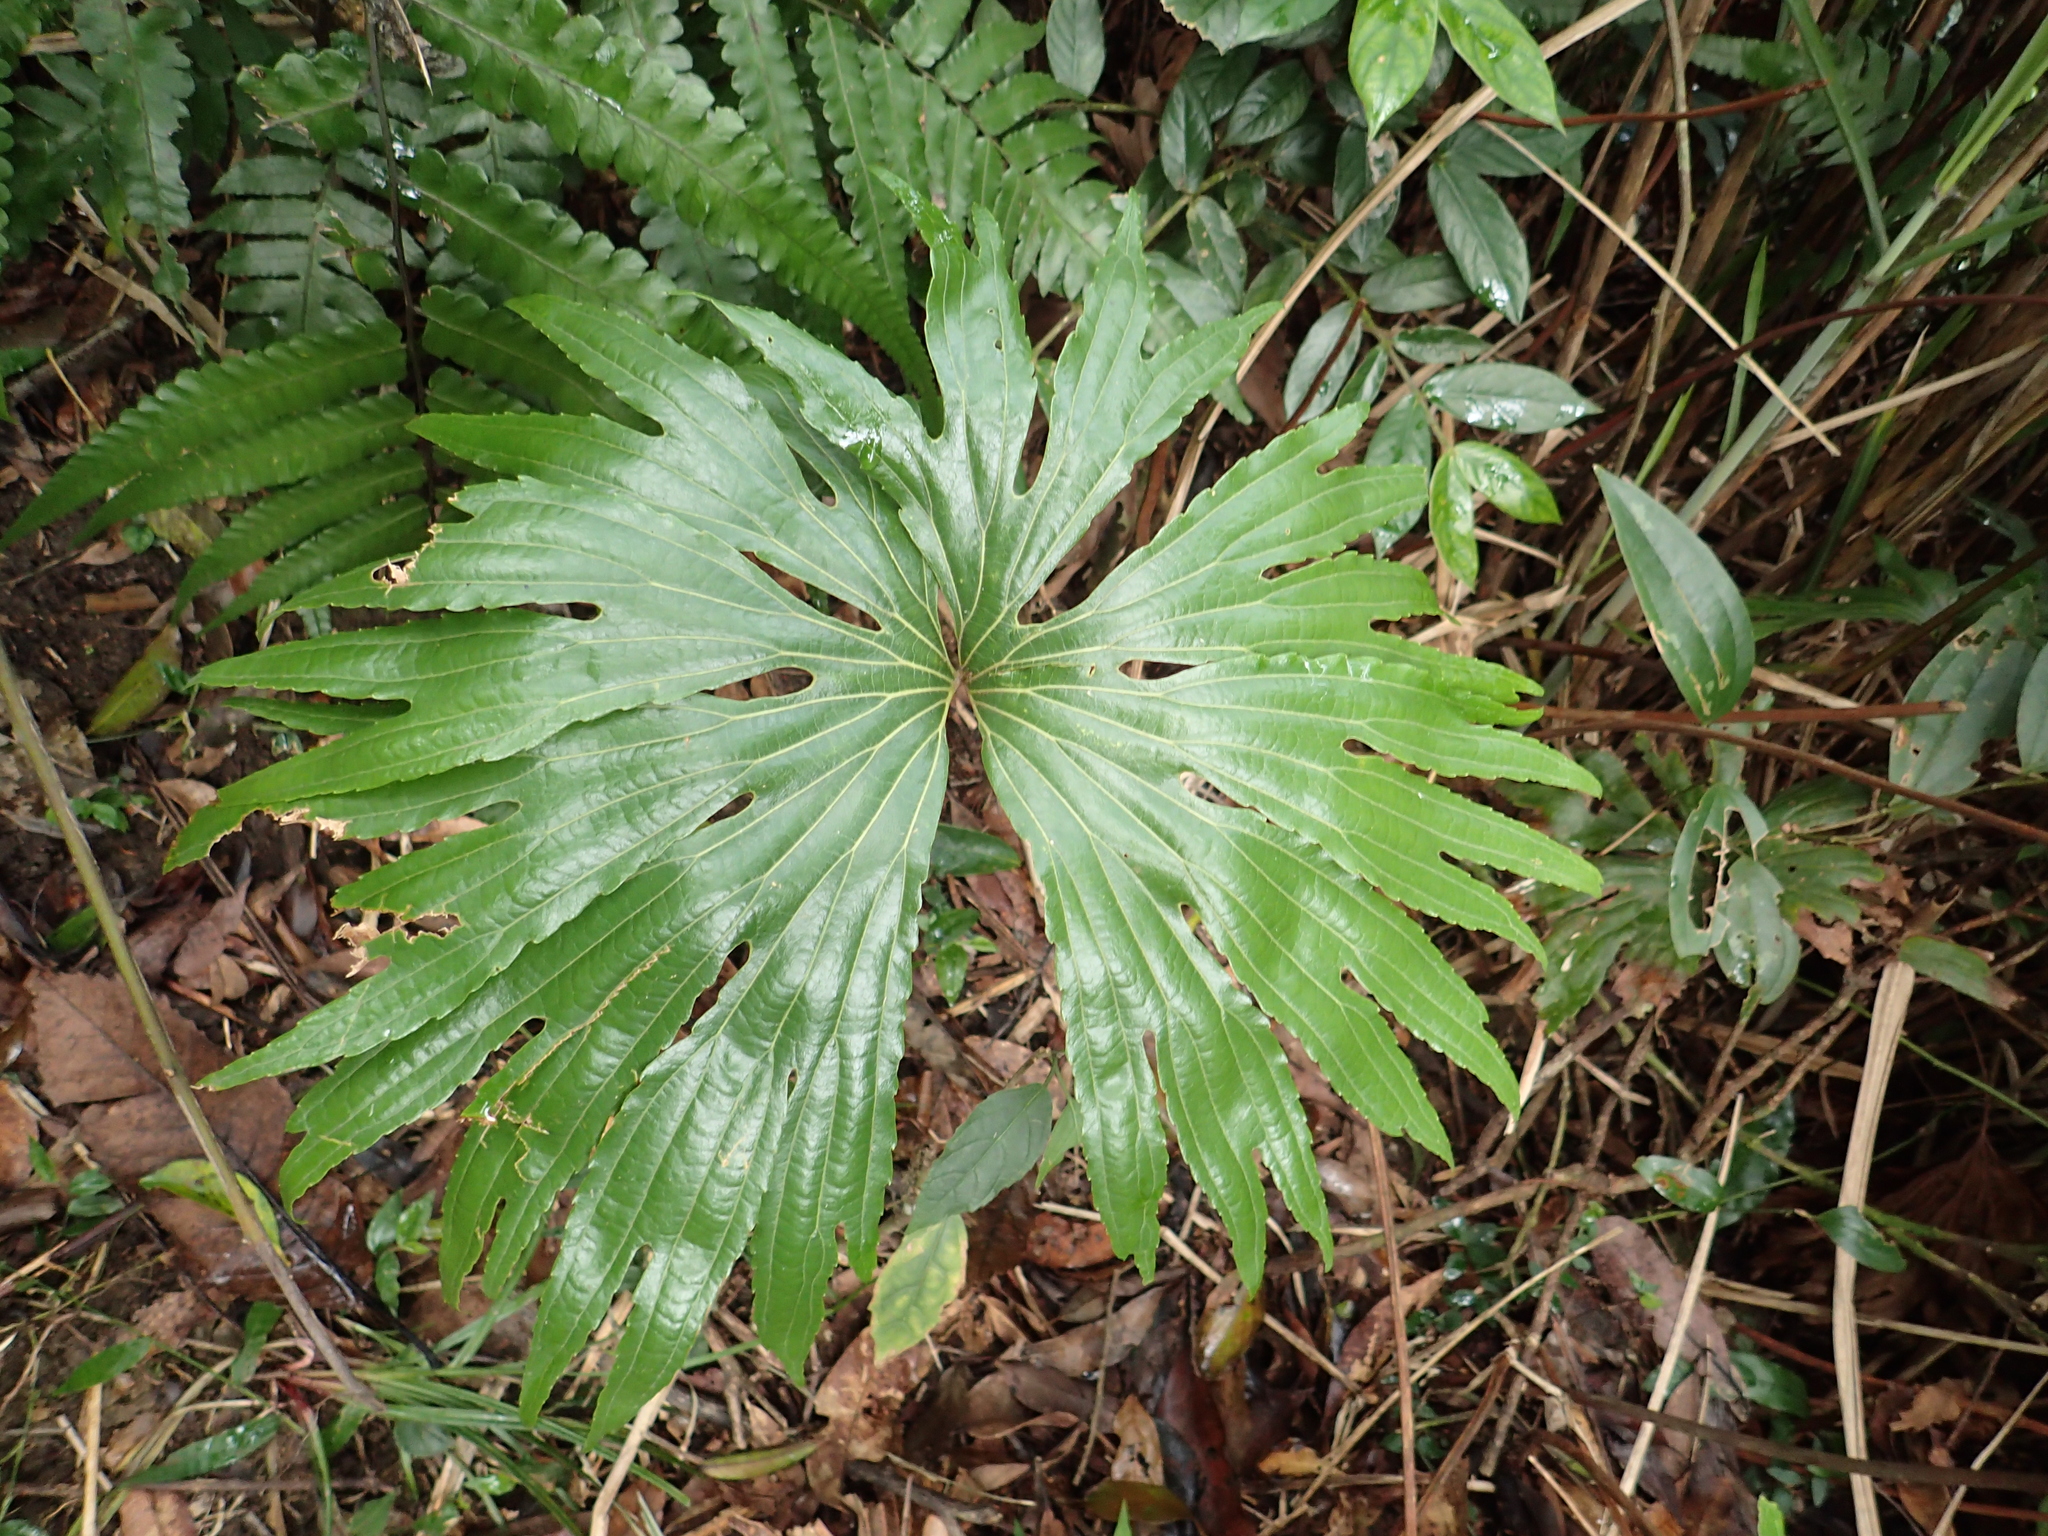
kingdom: Plantae
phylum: Tracheophyta
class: Polypodiopsida
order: Gleicheniales
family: Dipteridaceae
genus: Dipteris
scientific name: Dipteris conjugata
